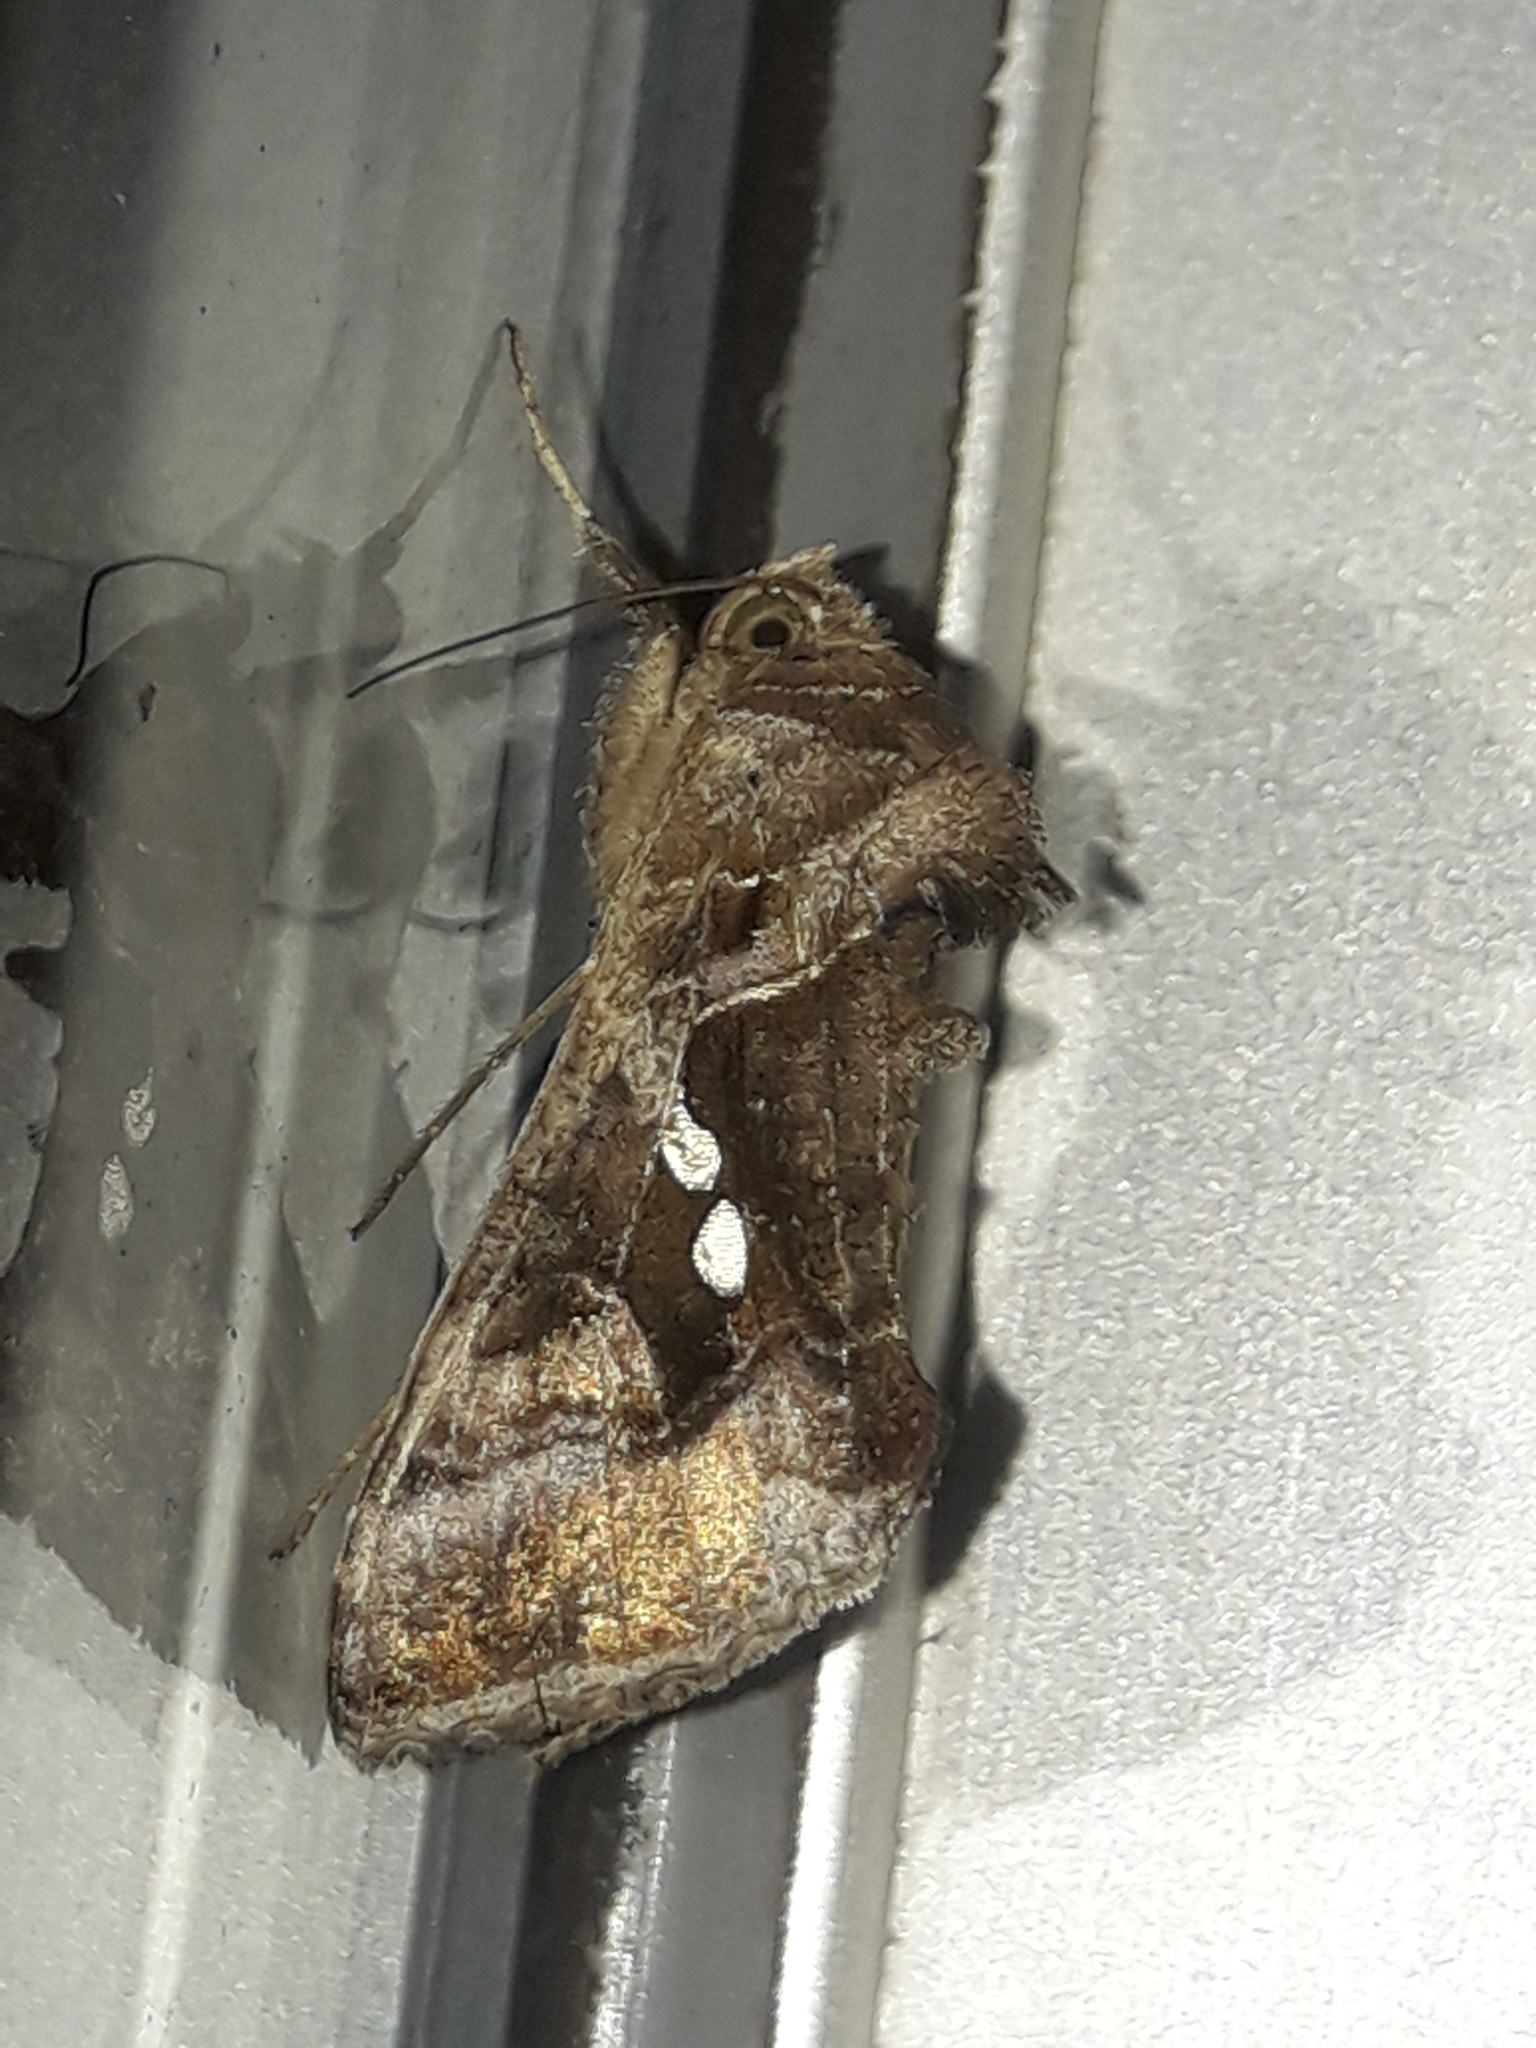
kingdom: Animalia
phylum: Arthropoda
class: Insecta
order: Lepidoptera
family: Noctuidae
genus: Chrysodeixis
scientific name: Chrysodeixis eriosoma
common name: Green garden looper
